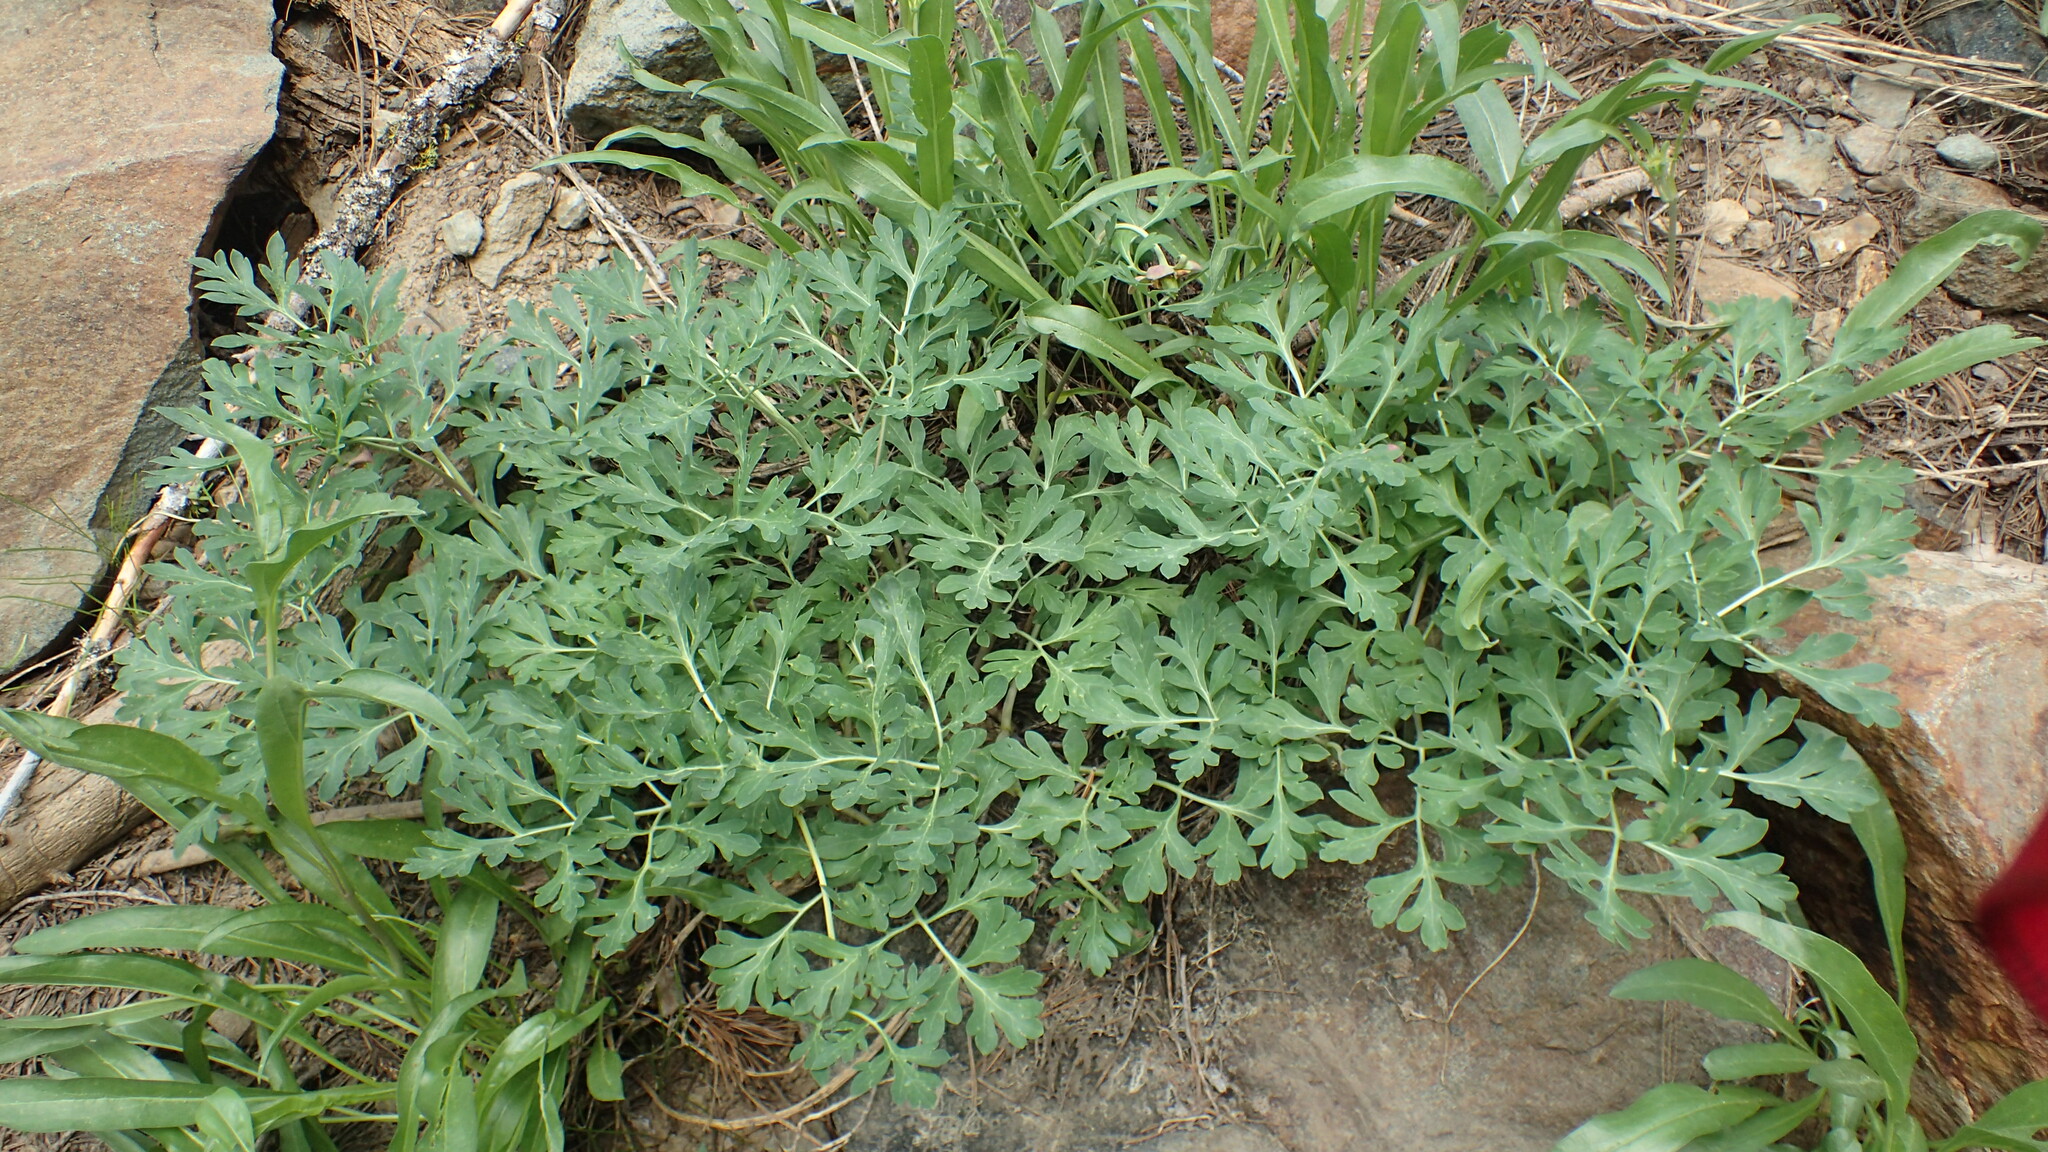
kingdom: Plantae
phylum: Tracheophyta
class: Magnoliopsida
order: Saxifragales
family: Paeoniaceae
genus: Paeonia
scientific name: Paeonia brownii
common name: Brown's peony
